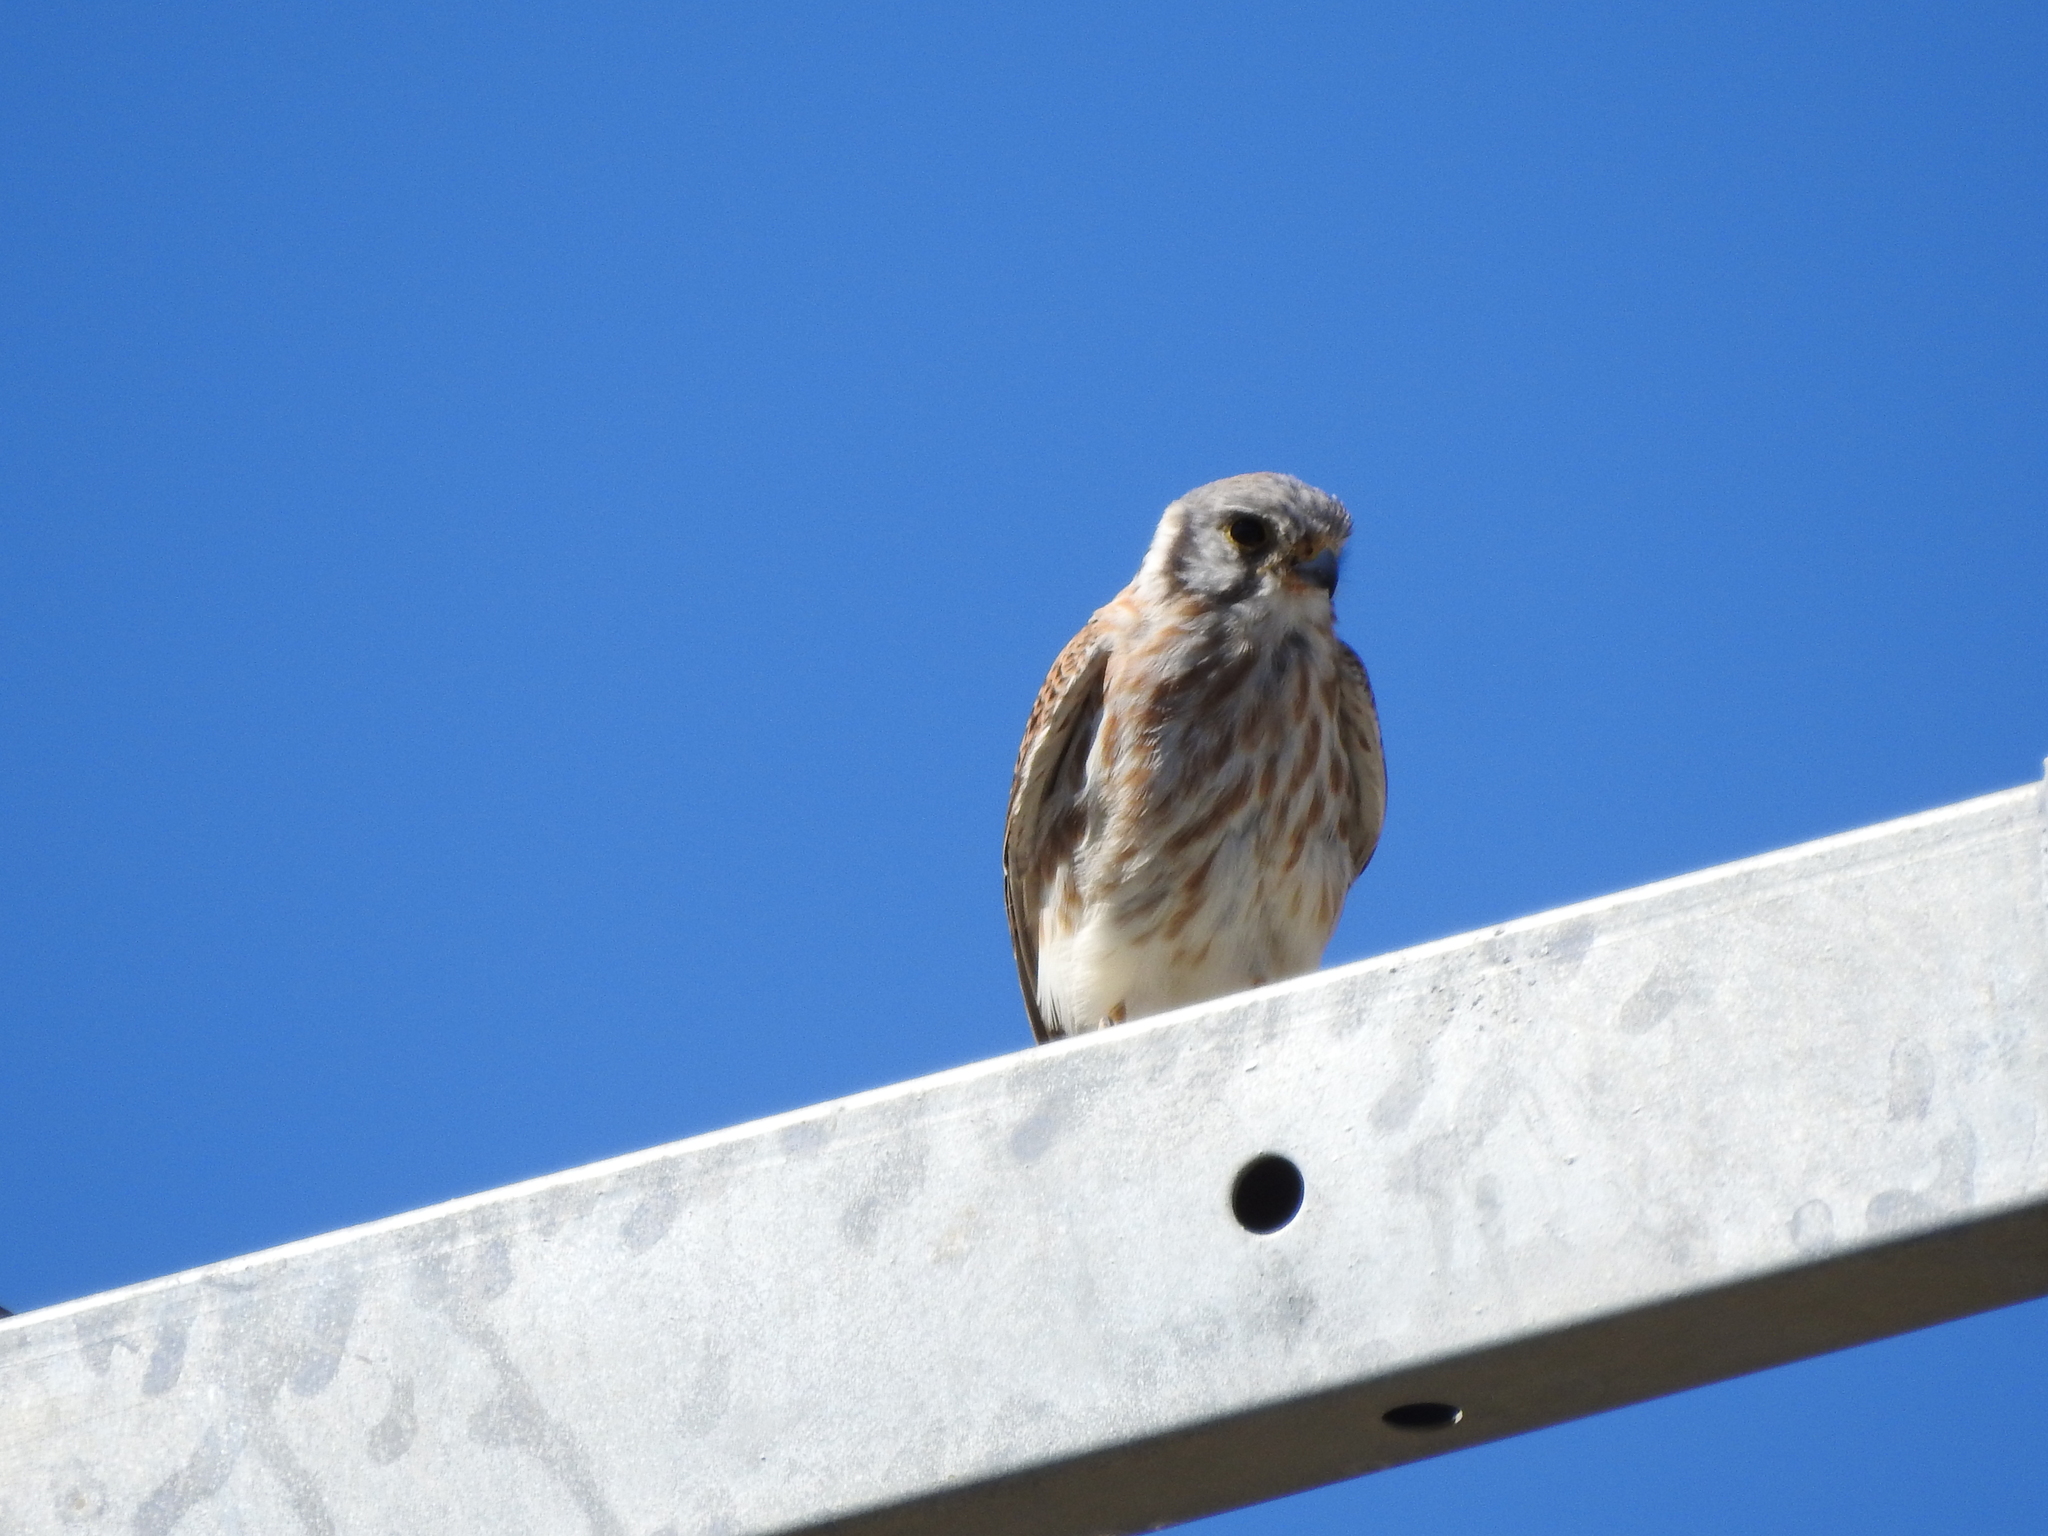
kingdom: Animalia
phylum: Chordata
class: Aves
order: Falconiformes
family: Falconidae
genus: Falco
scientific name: Falco sparverius
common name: American kestrel
